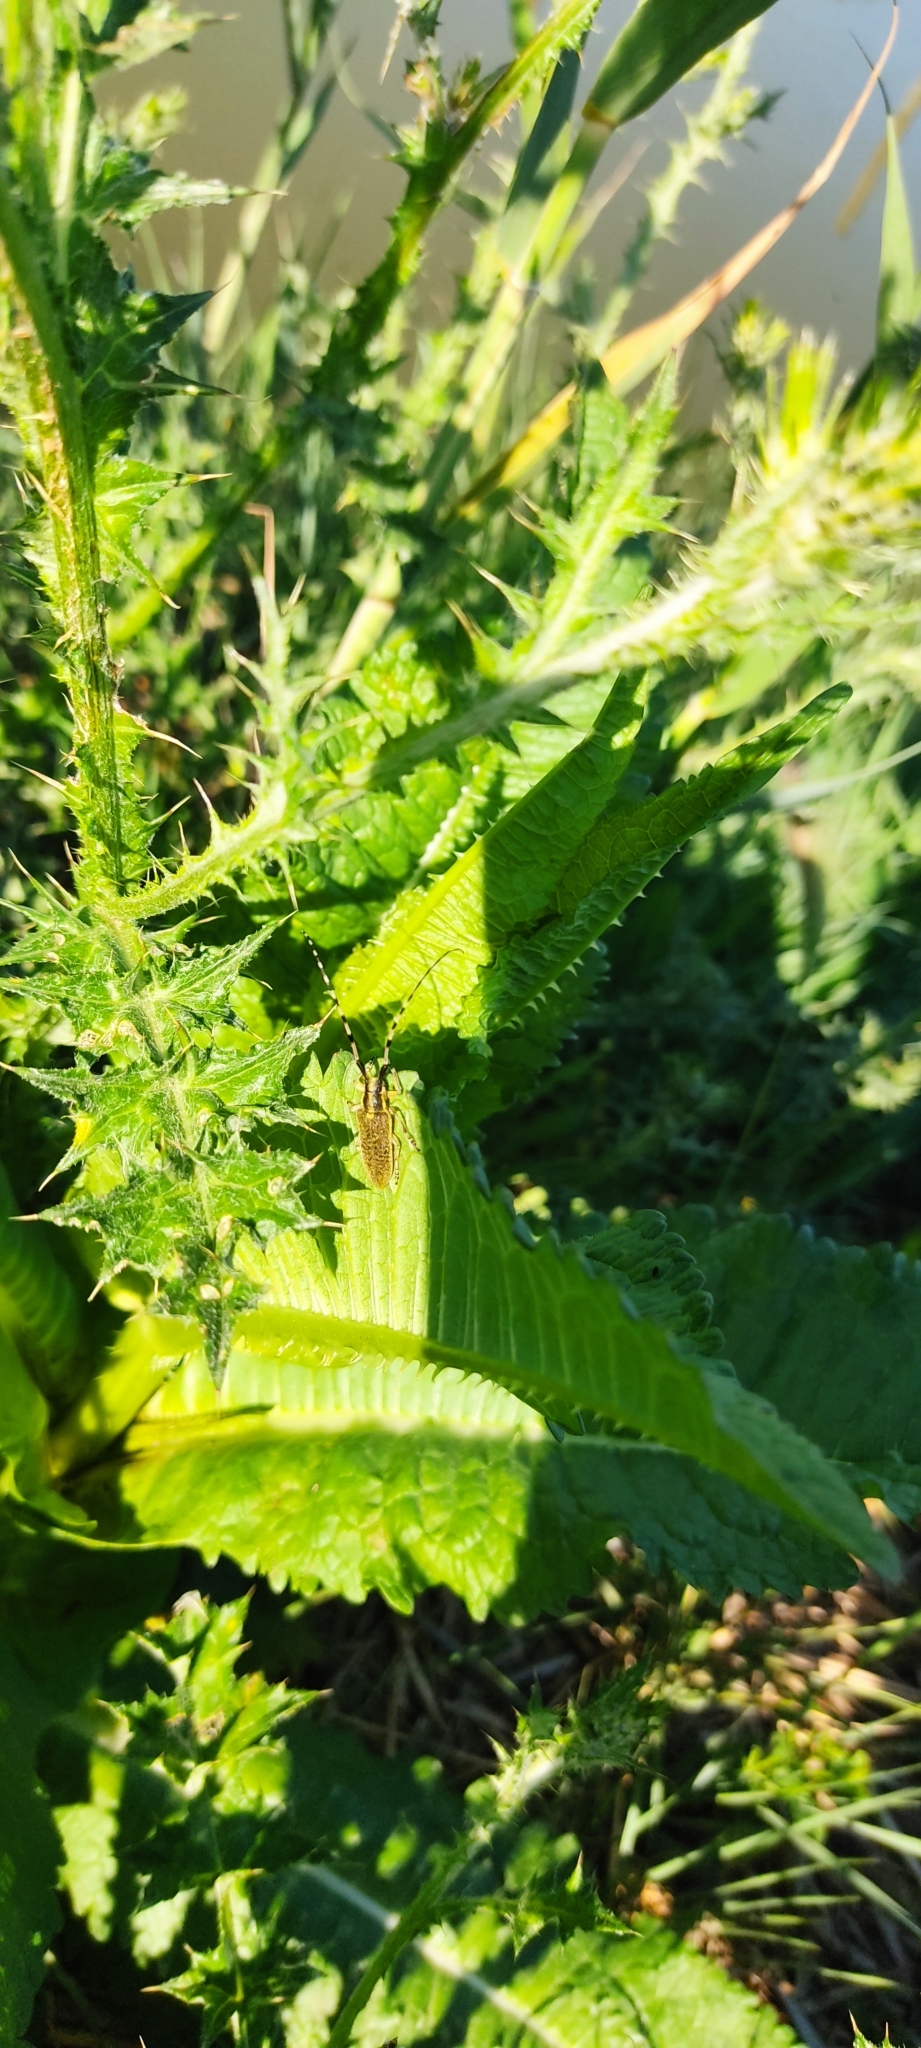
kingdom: Animalia
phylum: Arthropoda
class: Insecta
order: Coleoptera
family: Cerambycidae
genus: Agapanthia
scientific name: Agapanthia dahlii
